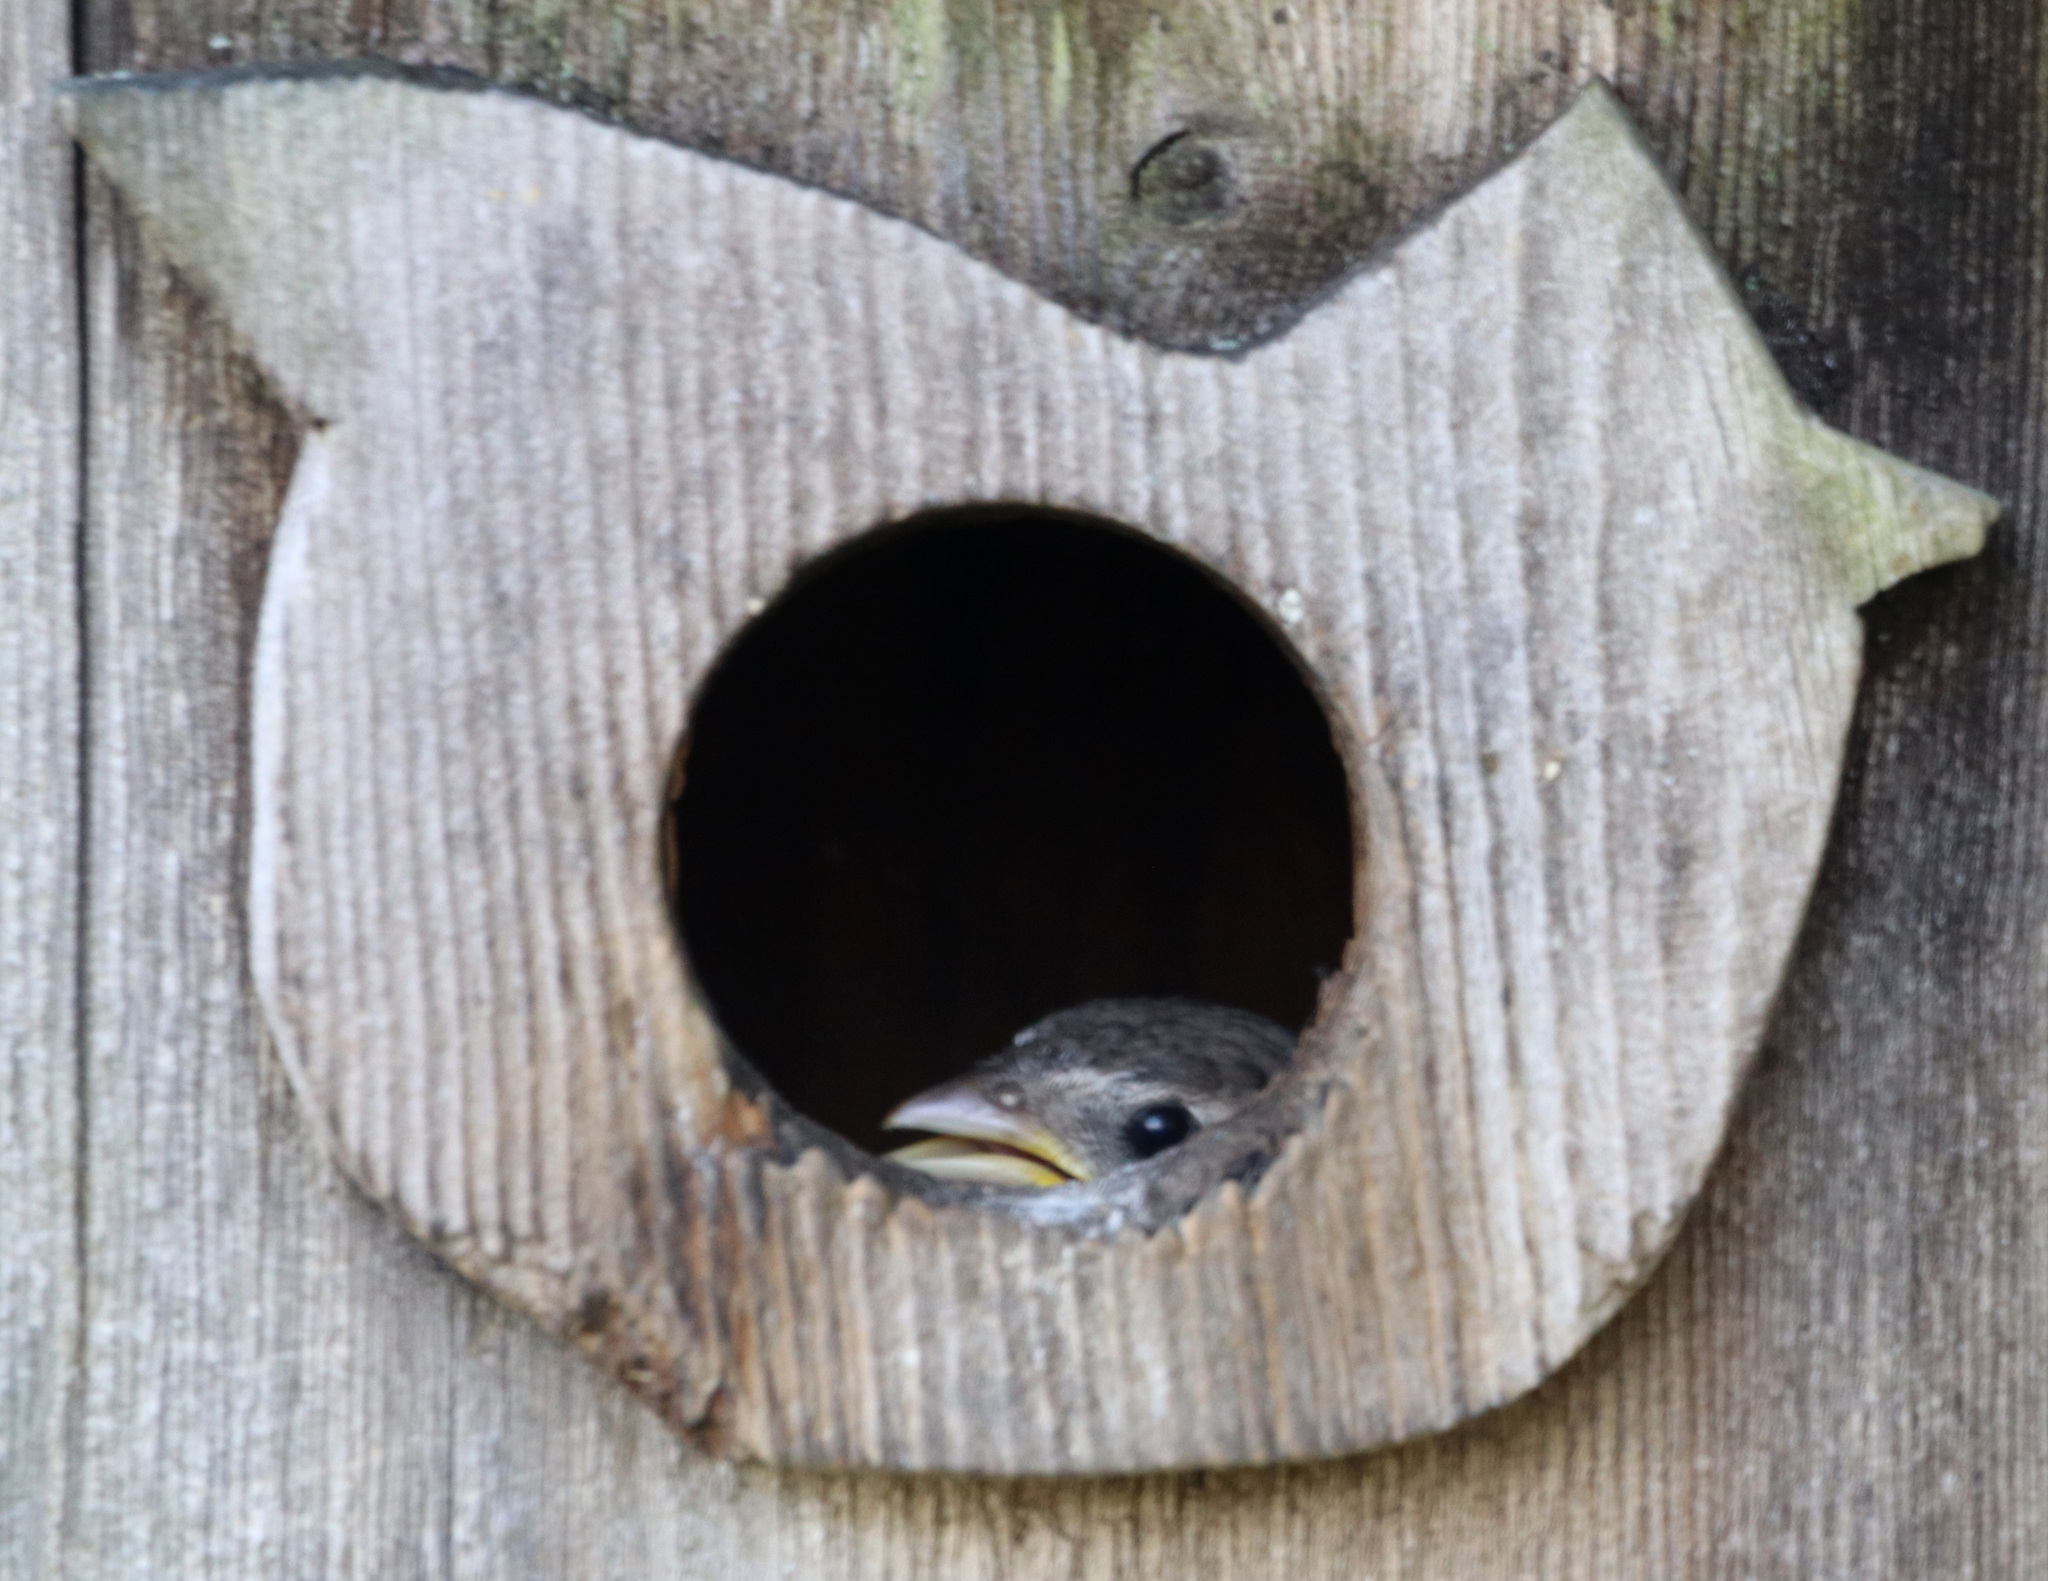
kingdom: Animalia
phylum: Chordata
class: Aves
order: Passeriformes
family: Passeridae
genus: Passer
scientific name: Passer domesticus
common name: House sparrow
